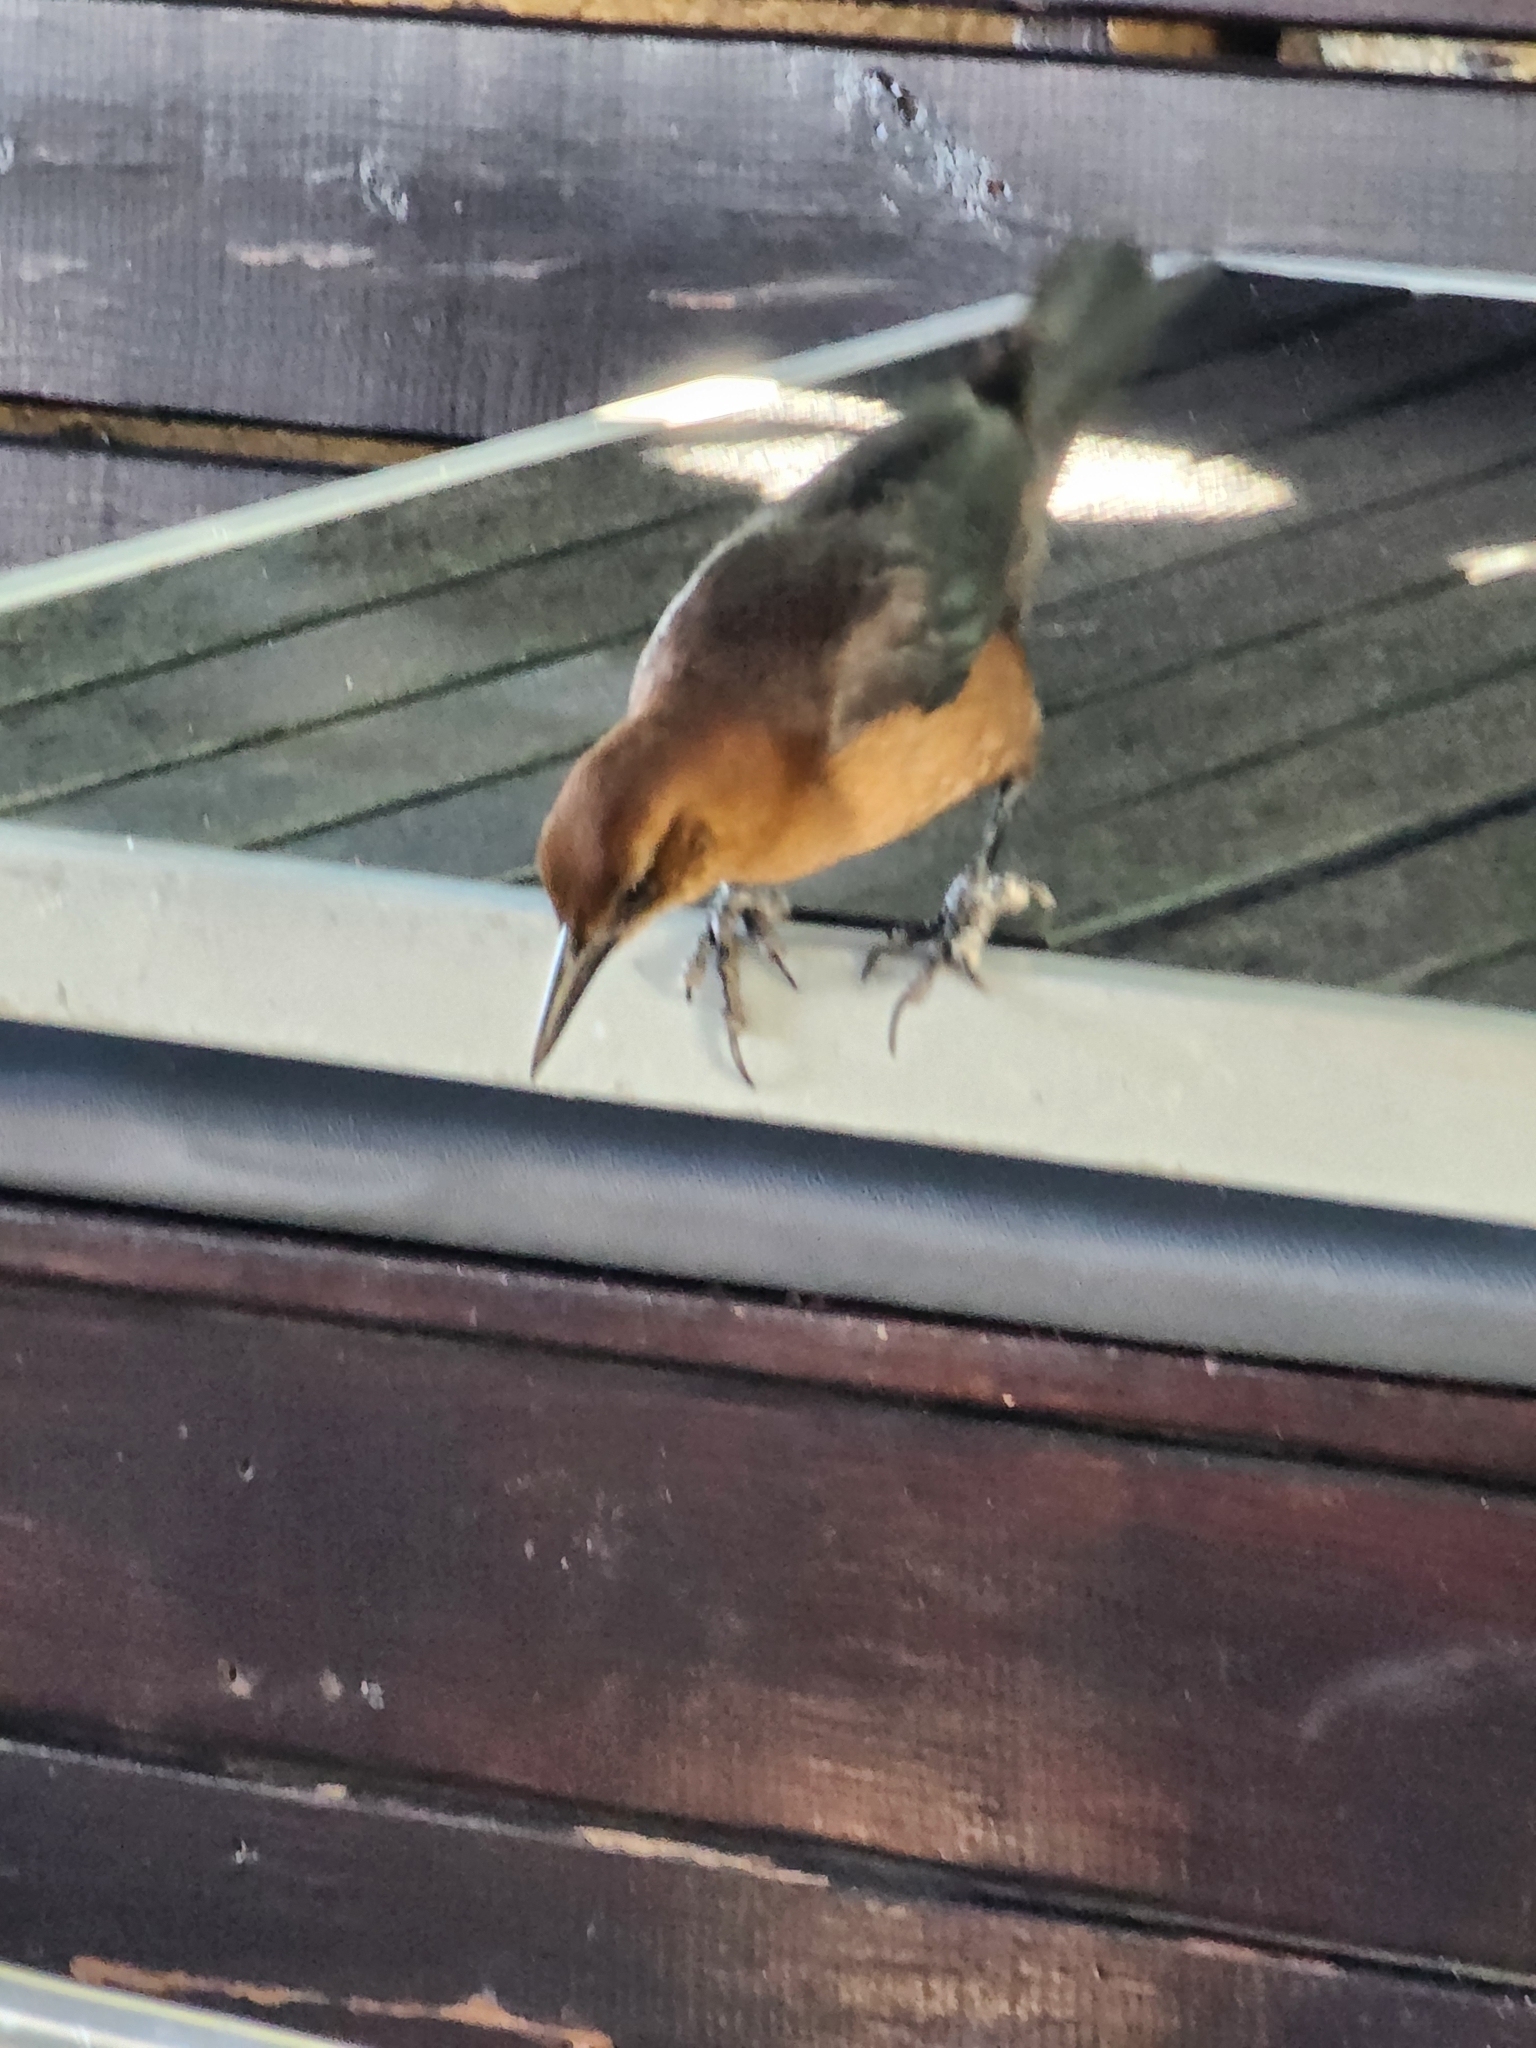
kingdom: Animalia
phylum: Chordata
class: Aves
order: Passeriformes
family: Icteridae
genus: Quiscalus
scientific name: Quiscalus major
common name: Boat-tailed grackle
